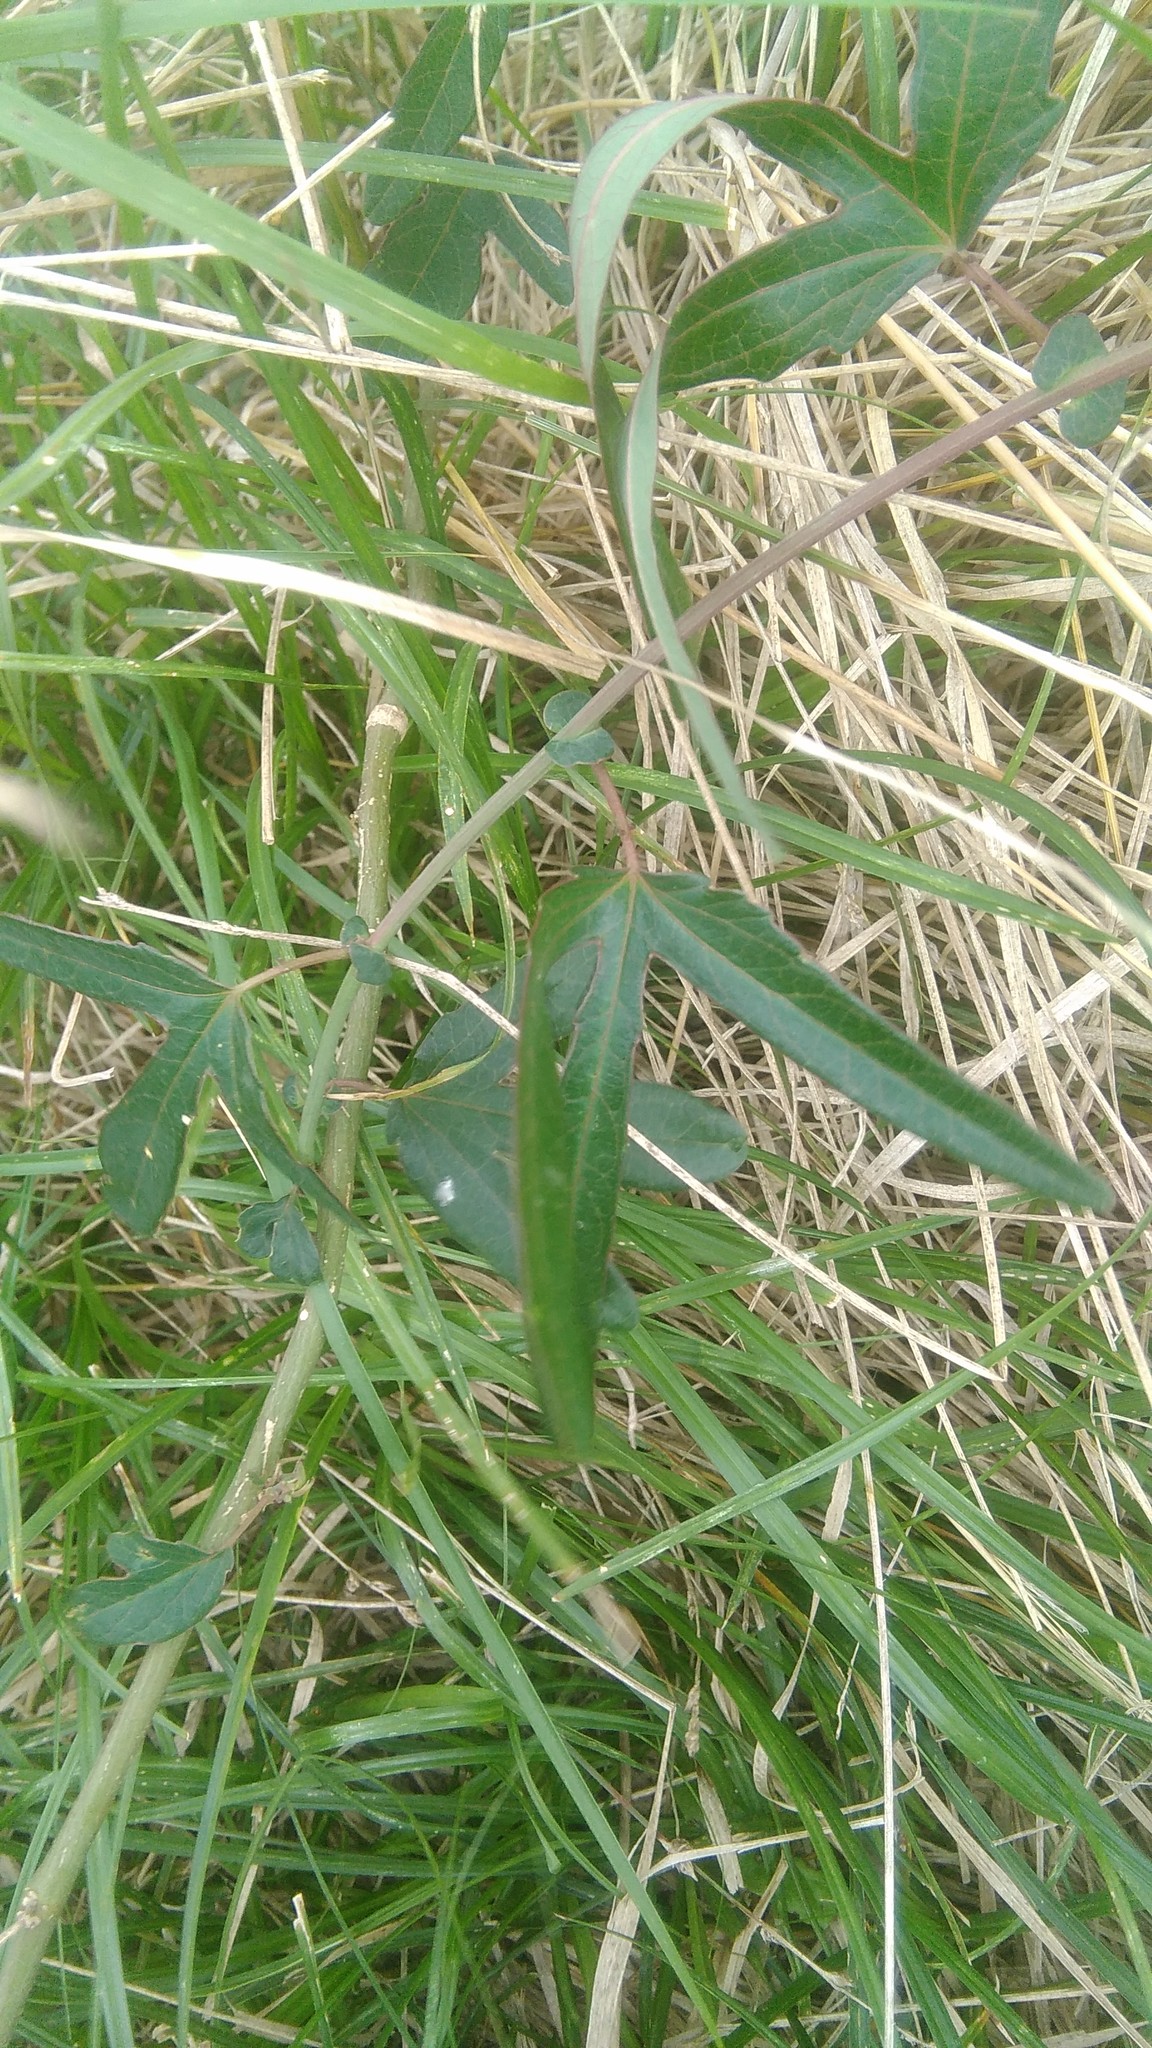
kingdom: Plantae
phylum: Tracheophyta
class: Magnoliopsida
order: Malpighiales
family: Passifloraceae
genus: Passiflora
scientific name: Passiflora caerulea
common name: Blue passionflower
